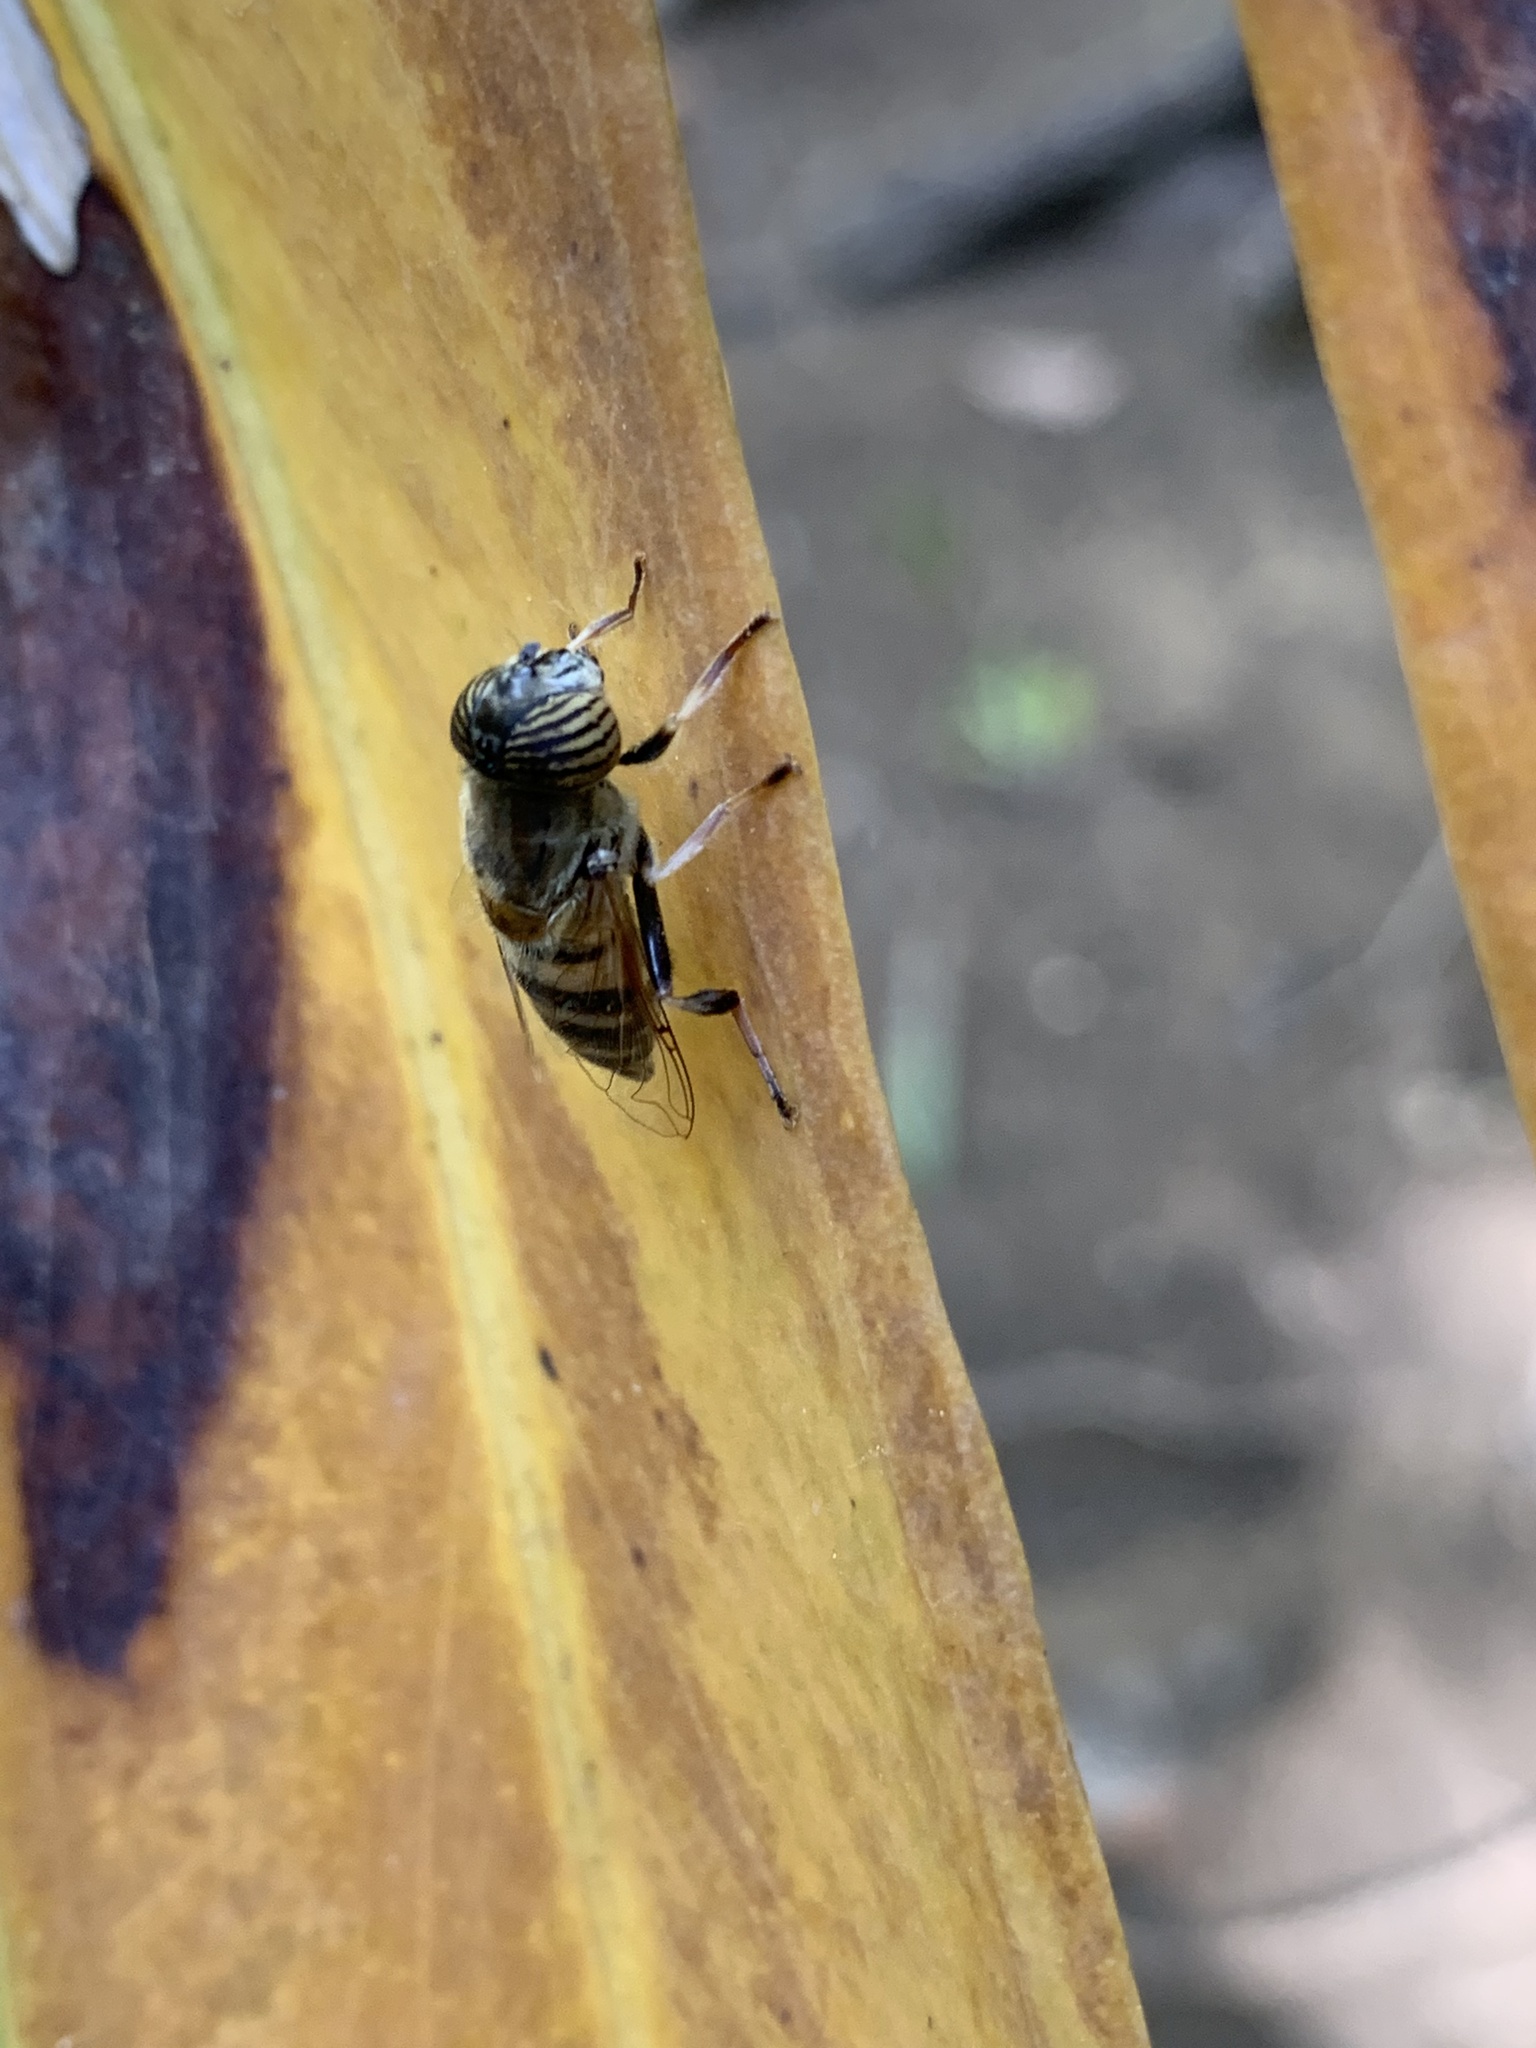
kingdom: Animalia
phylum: Arthropoda
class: Insecta
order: Diptera
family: Syrphidae
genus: Eristalinus
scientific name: Eristalinus taeniops
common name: Syrphid fly
